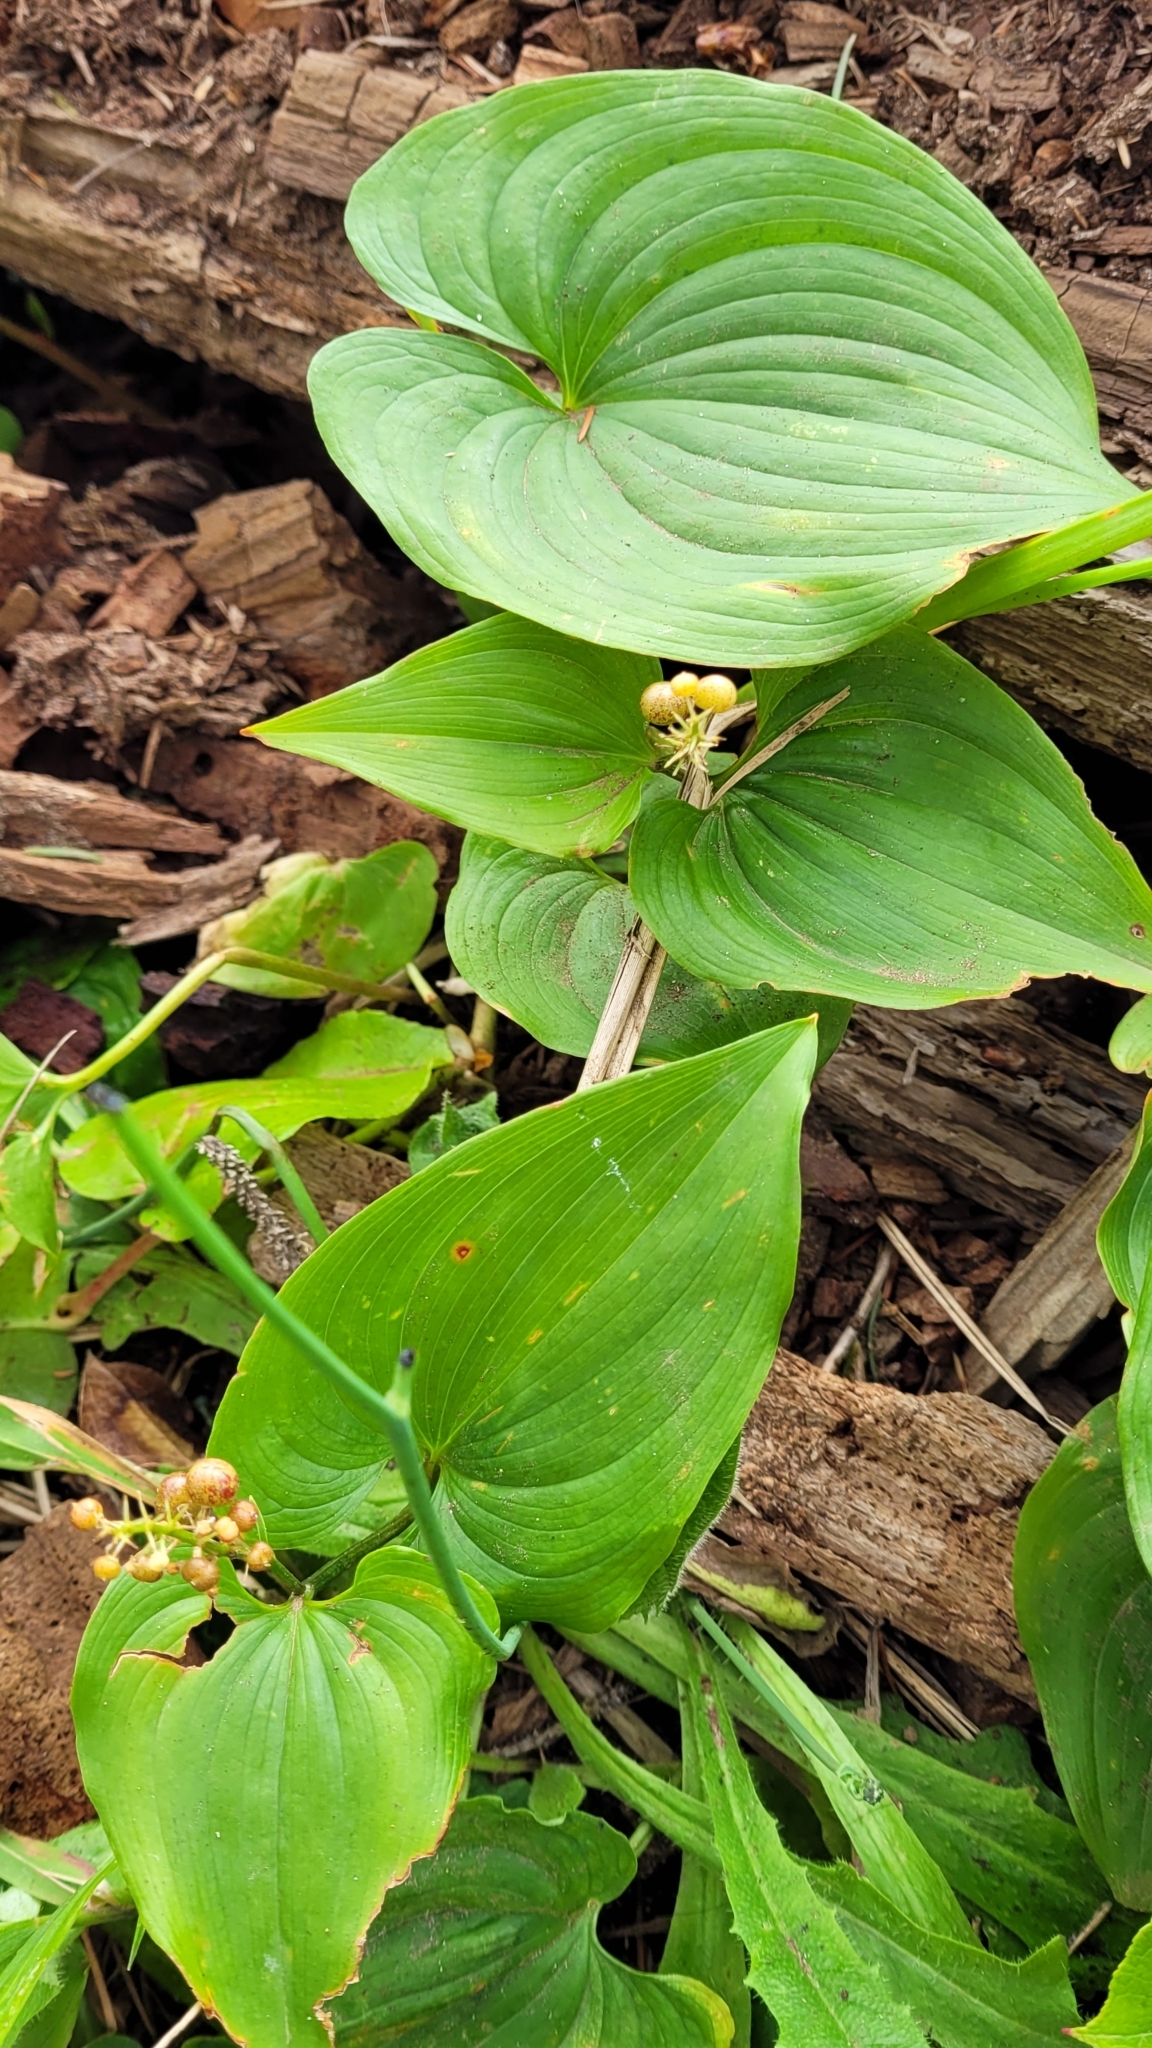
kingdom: Plantae
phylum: Tracheophyta
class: Liliopsida
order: Asparagales
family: Asparagaceae
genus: Maianthemum
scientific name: Maianthemum dilatatum
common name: False lily-of-the-valley
